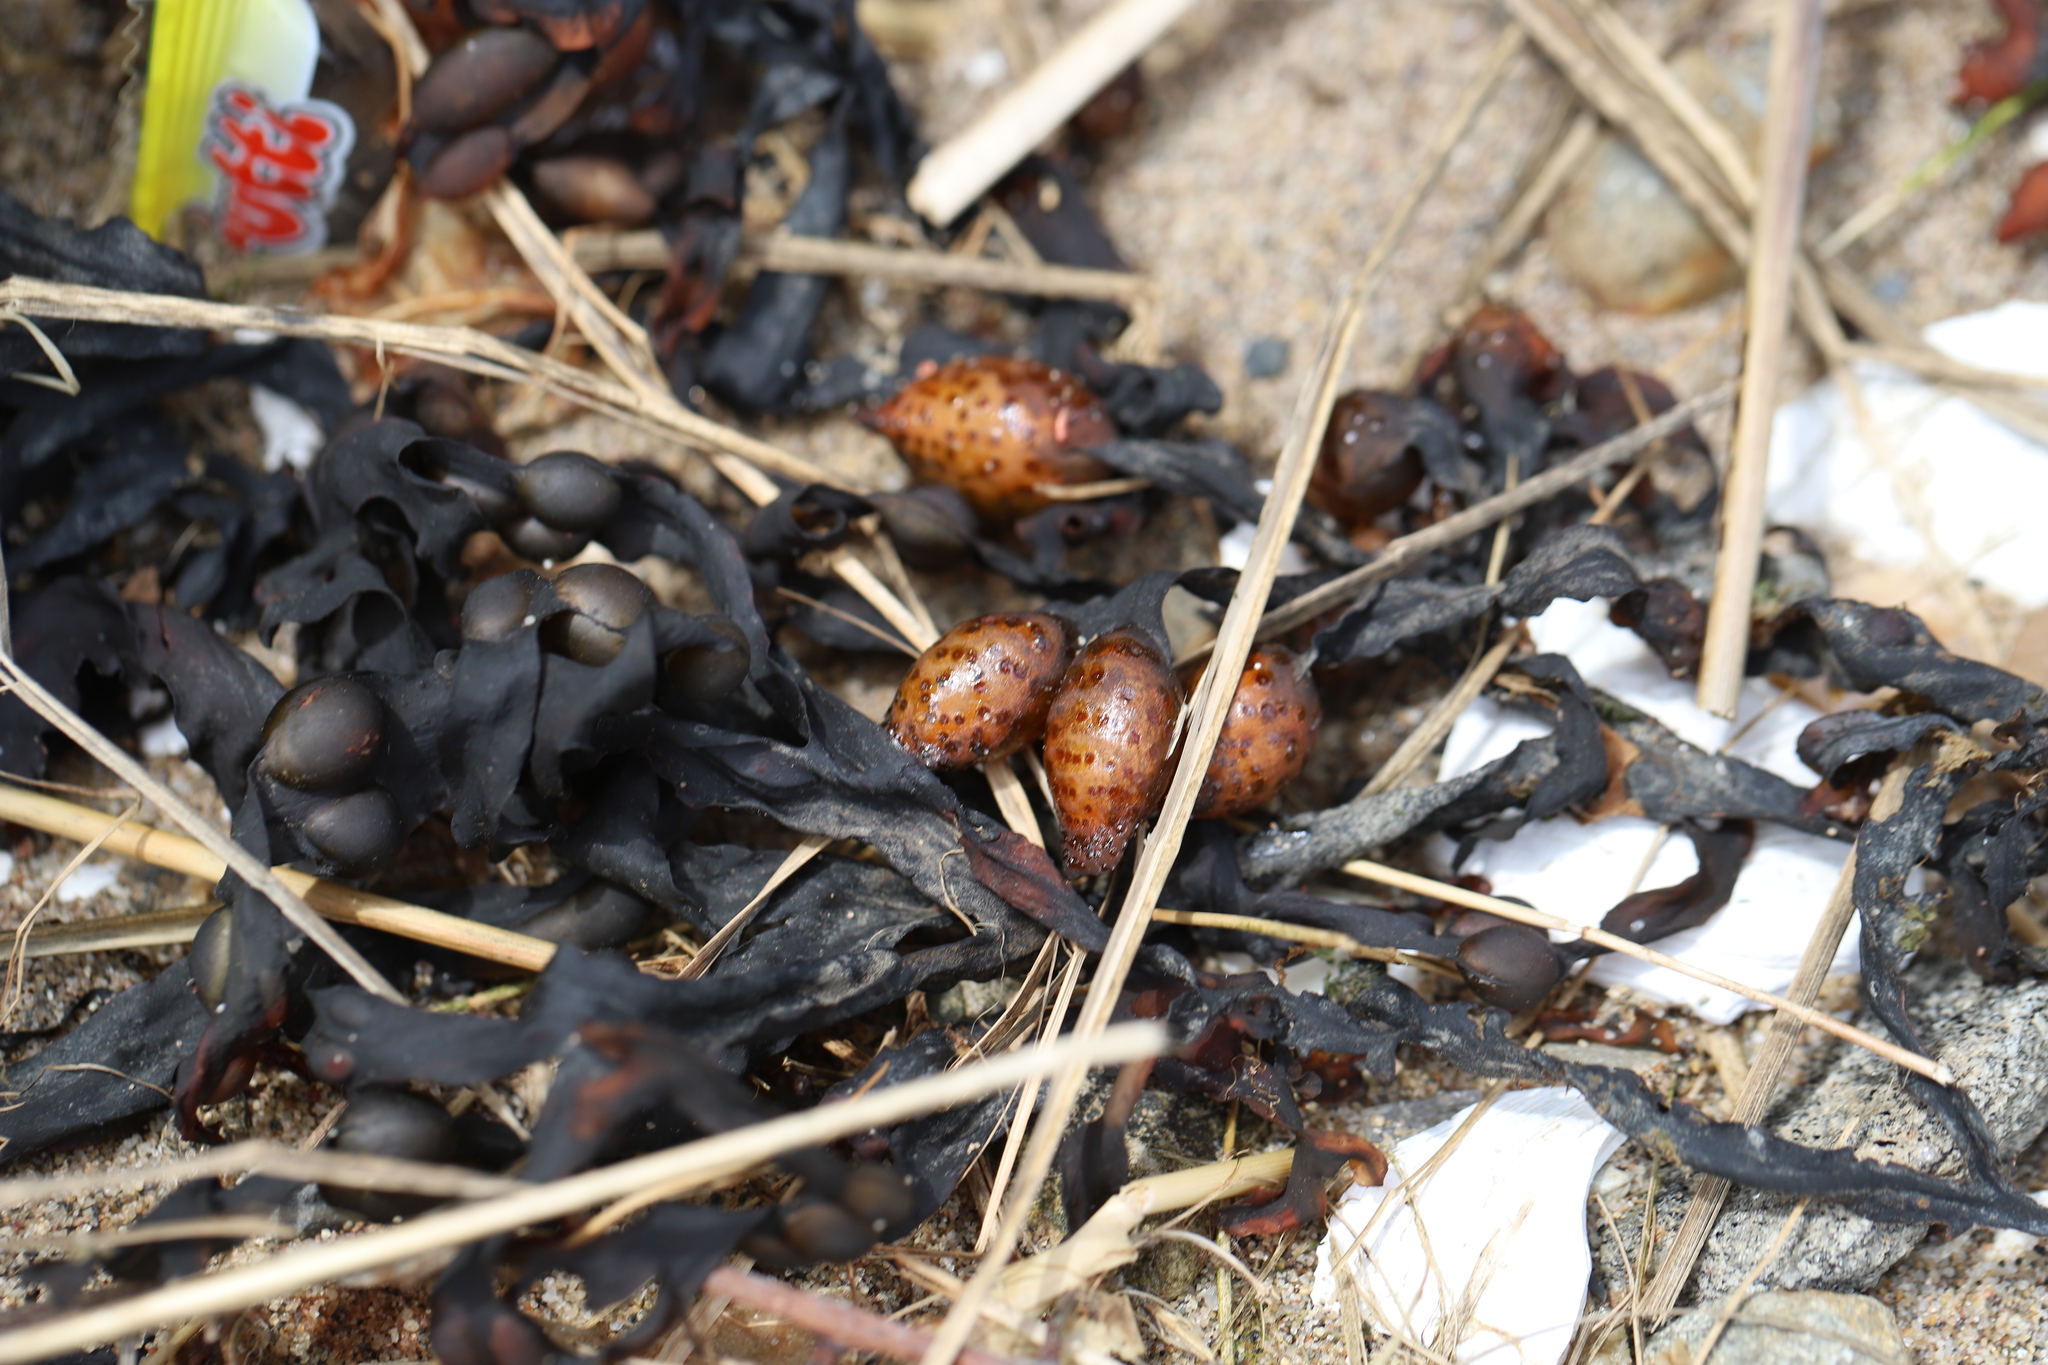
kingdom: Chromista
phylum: Ochrophyta
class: Phaeophyceae
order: Fucales
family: Fucaceae
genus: Fucus
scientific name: Fucus vesiculosus
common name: Bladder wrack
